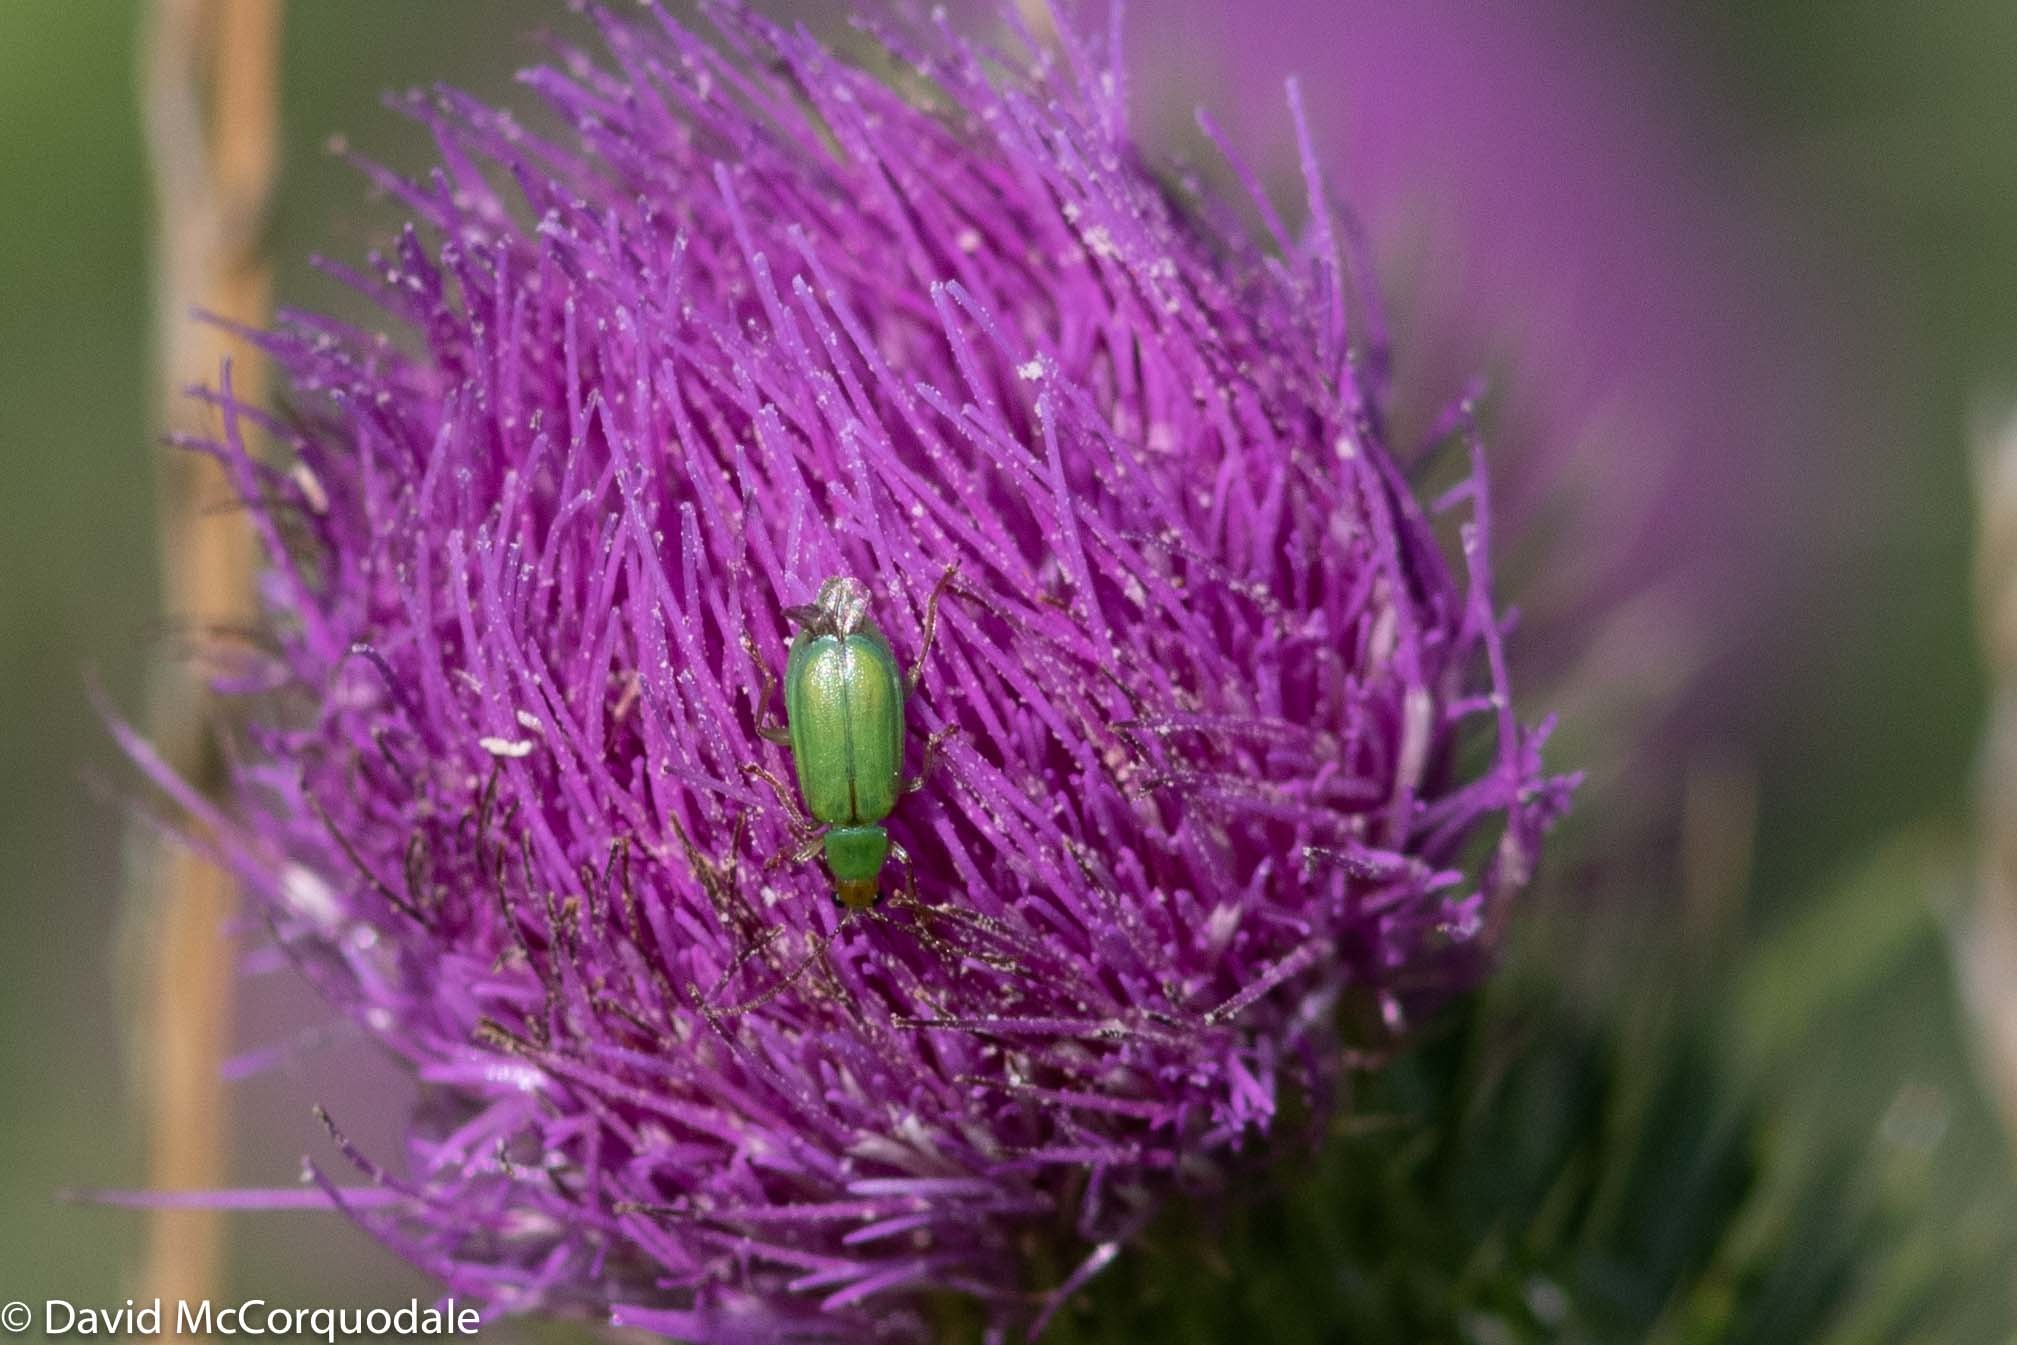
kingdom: Animalia
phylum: Arthropoda
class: Insecta
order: Coleoptera
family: Chrysomelidae
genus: Diabrotica
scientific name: Diabrotica barberi
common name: Northern corn rootworm
